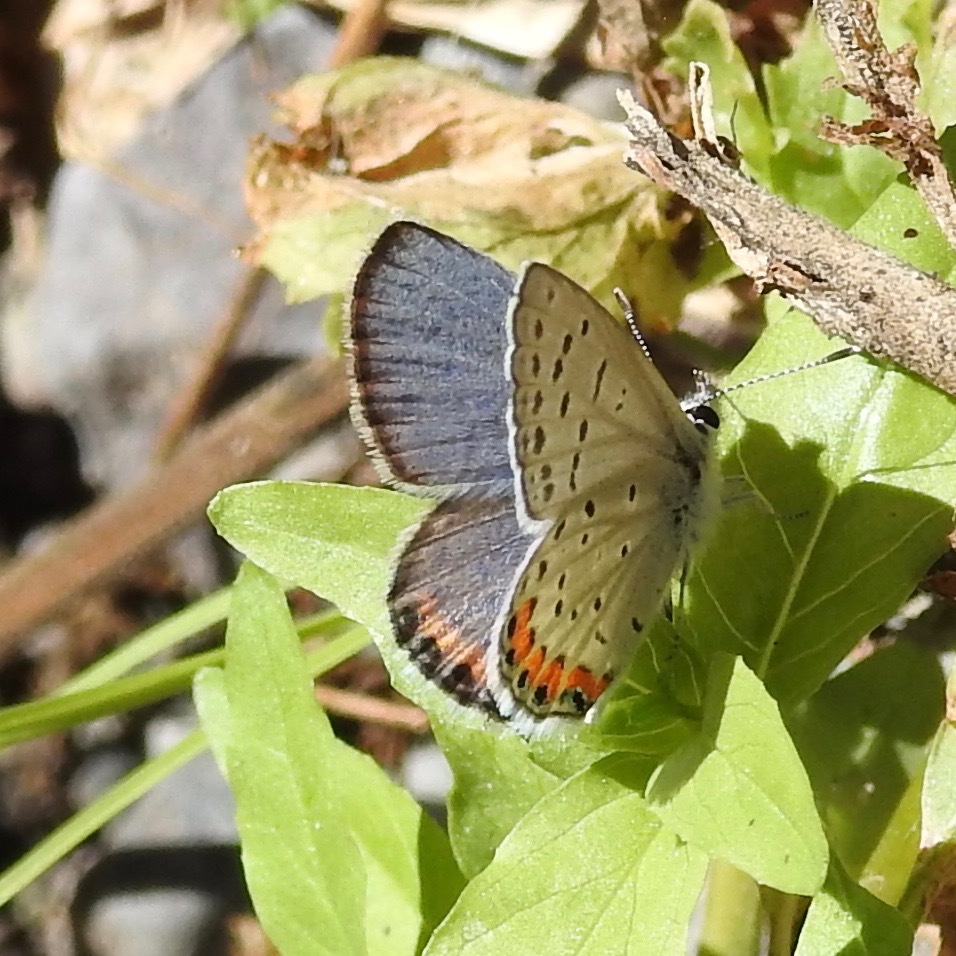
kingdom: Animalia
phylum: Arthropoda
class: Insecta
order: Lepidoptera
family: Lycaenidae
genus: Icaricia
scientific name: Icaricia acmon
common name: Acmon blue
